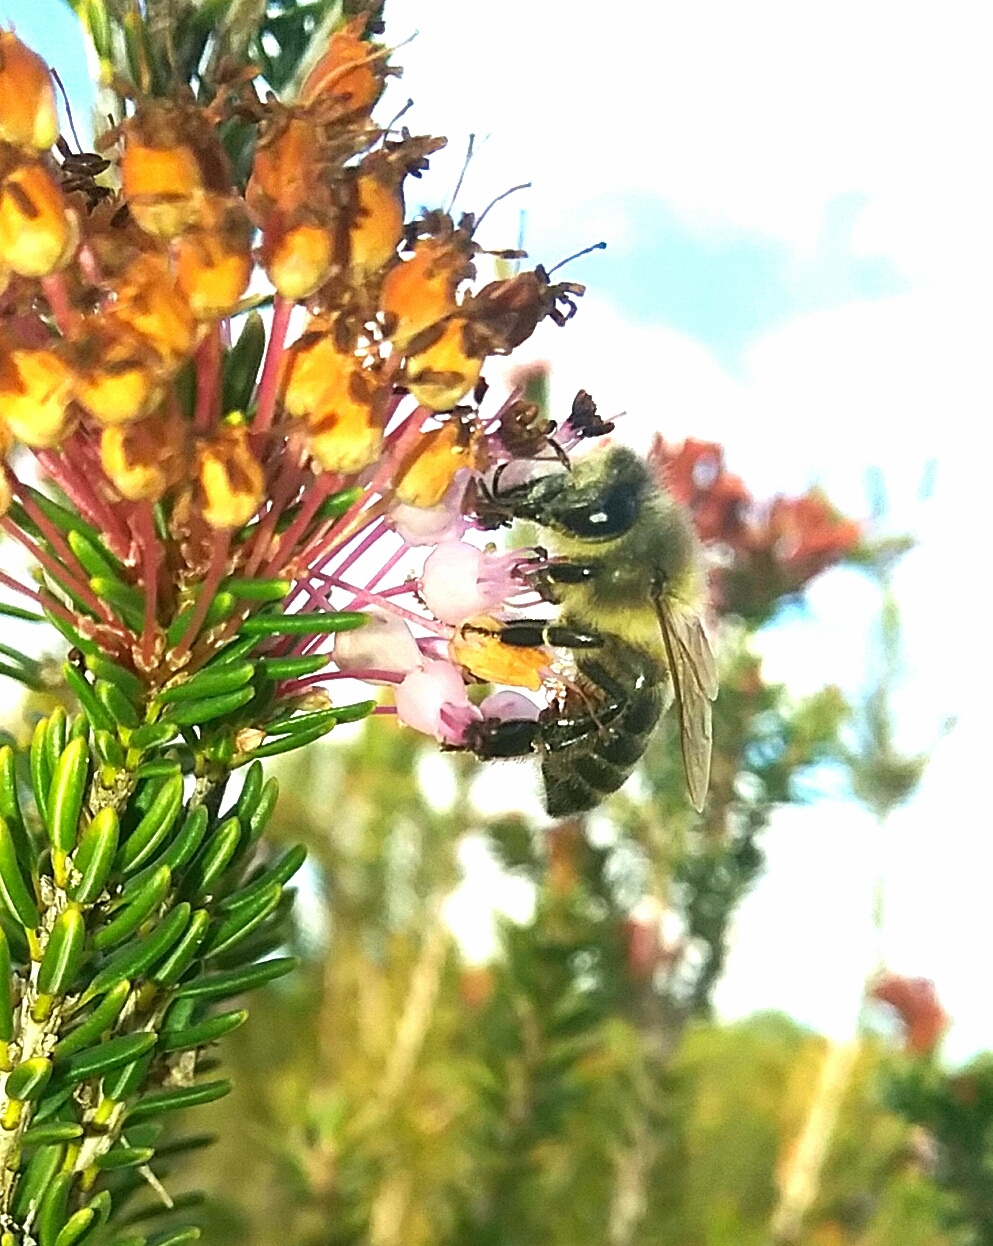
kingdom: Animalia
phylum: Arthropoda
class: Insecta
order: Hymenoptera
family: Apidae
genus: Apis
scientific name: Apis mellifera
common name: Honey bee
